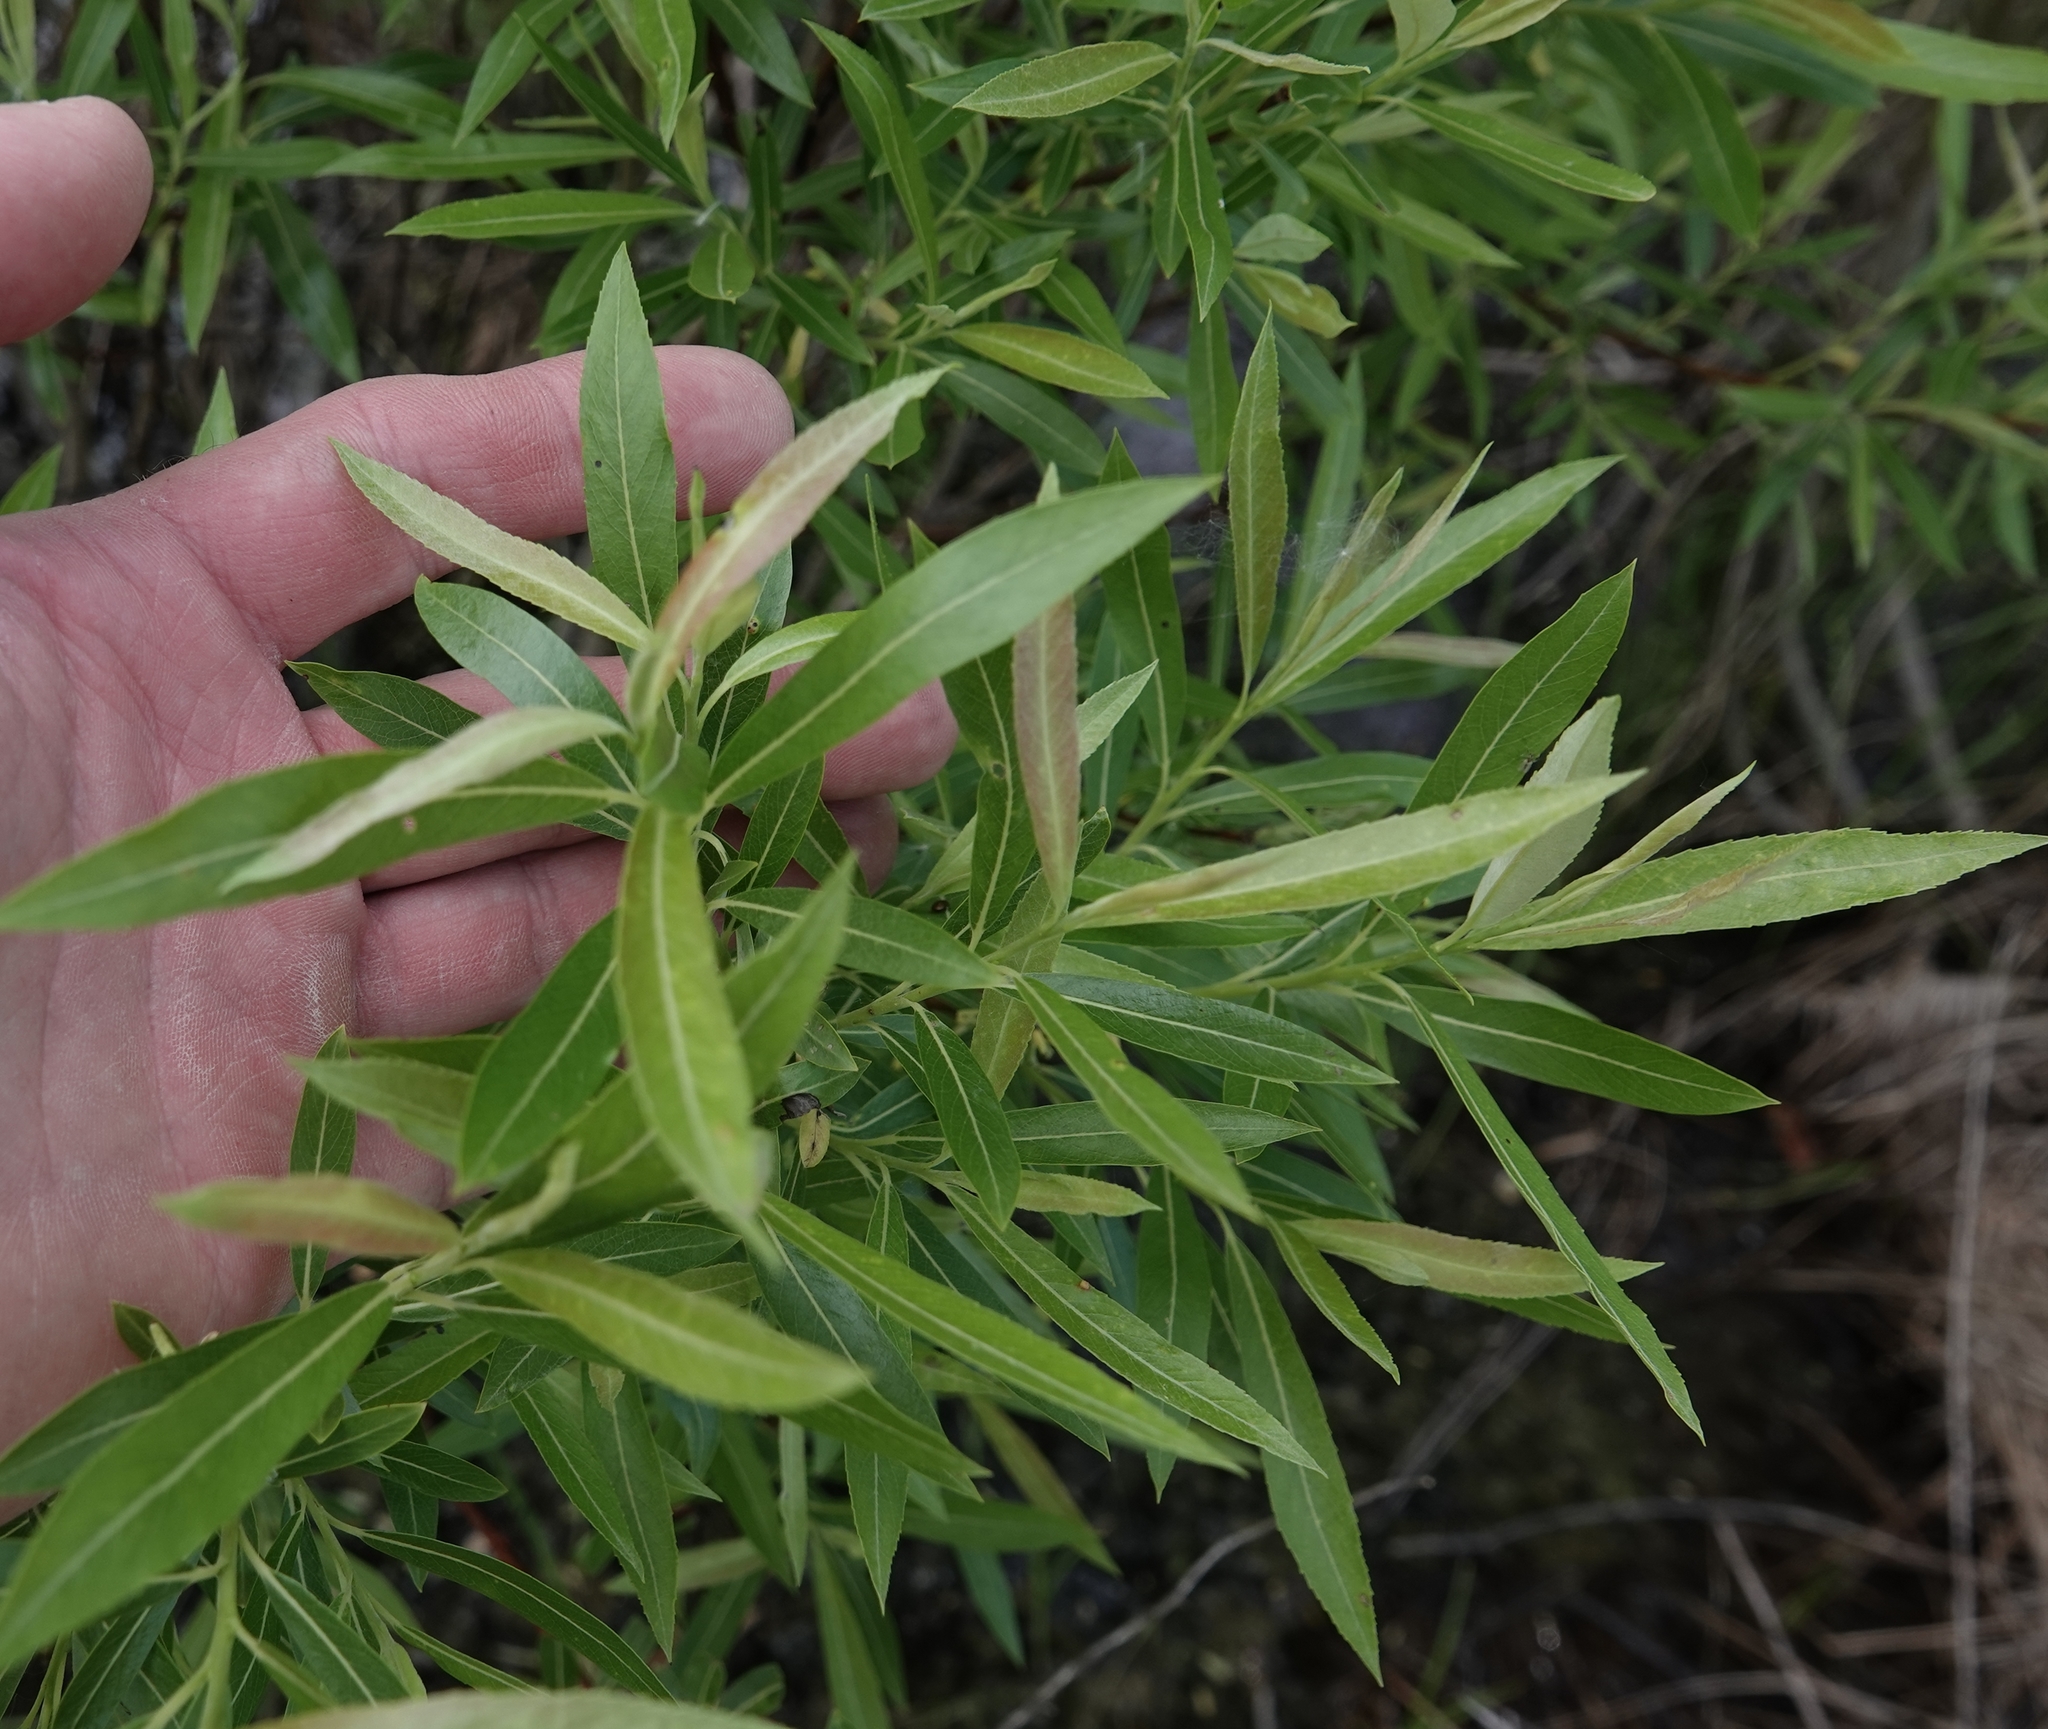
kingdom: Plantae
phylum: Tracheophyta
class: Magnoliopsida
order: Malpighiales
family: Salicaceae
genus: Salix
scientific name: Salix interior
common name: Sandbar willow
